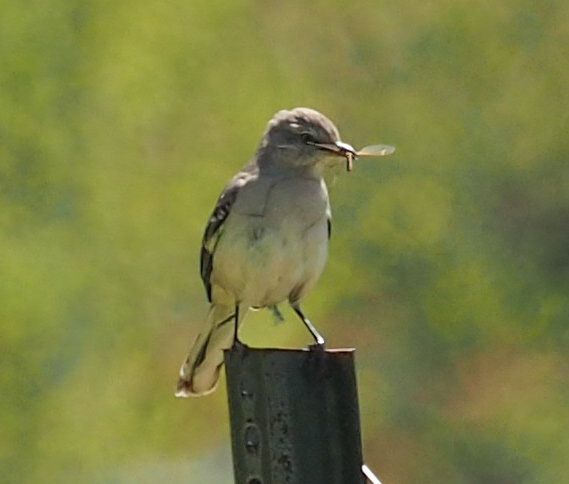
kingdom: Animalia
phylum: Chordata
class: Aves
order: Passeriformes
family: Mimidae
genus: Mimus
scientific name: Mimus polyglottos
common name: Northern mockingbird
